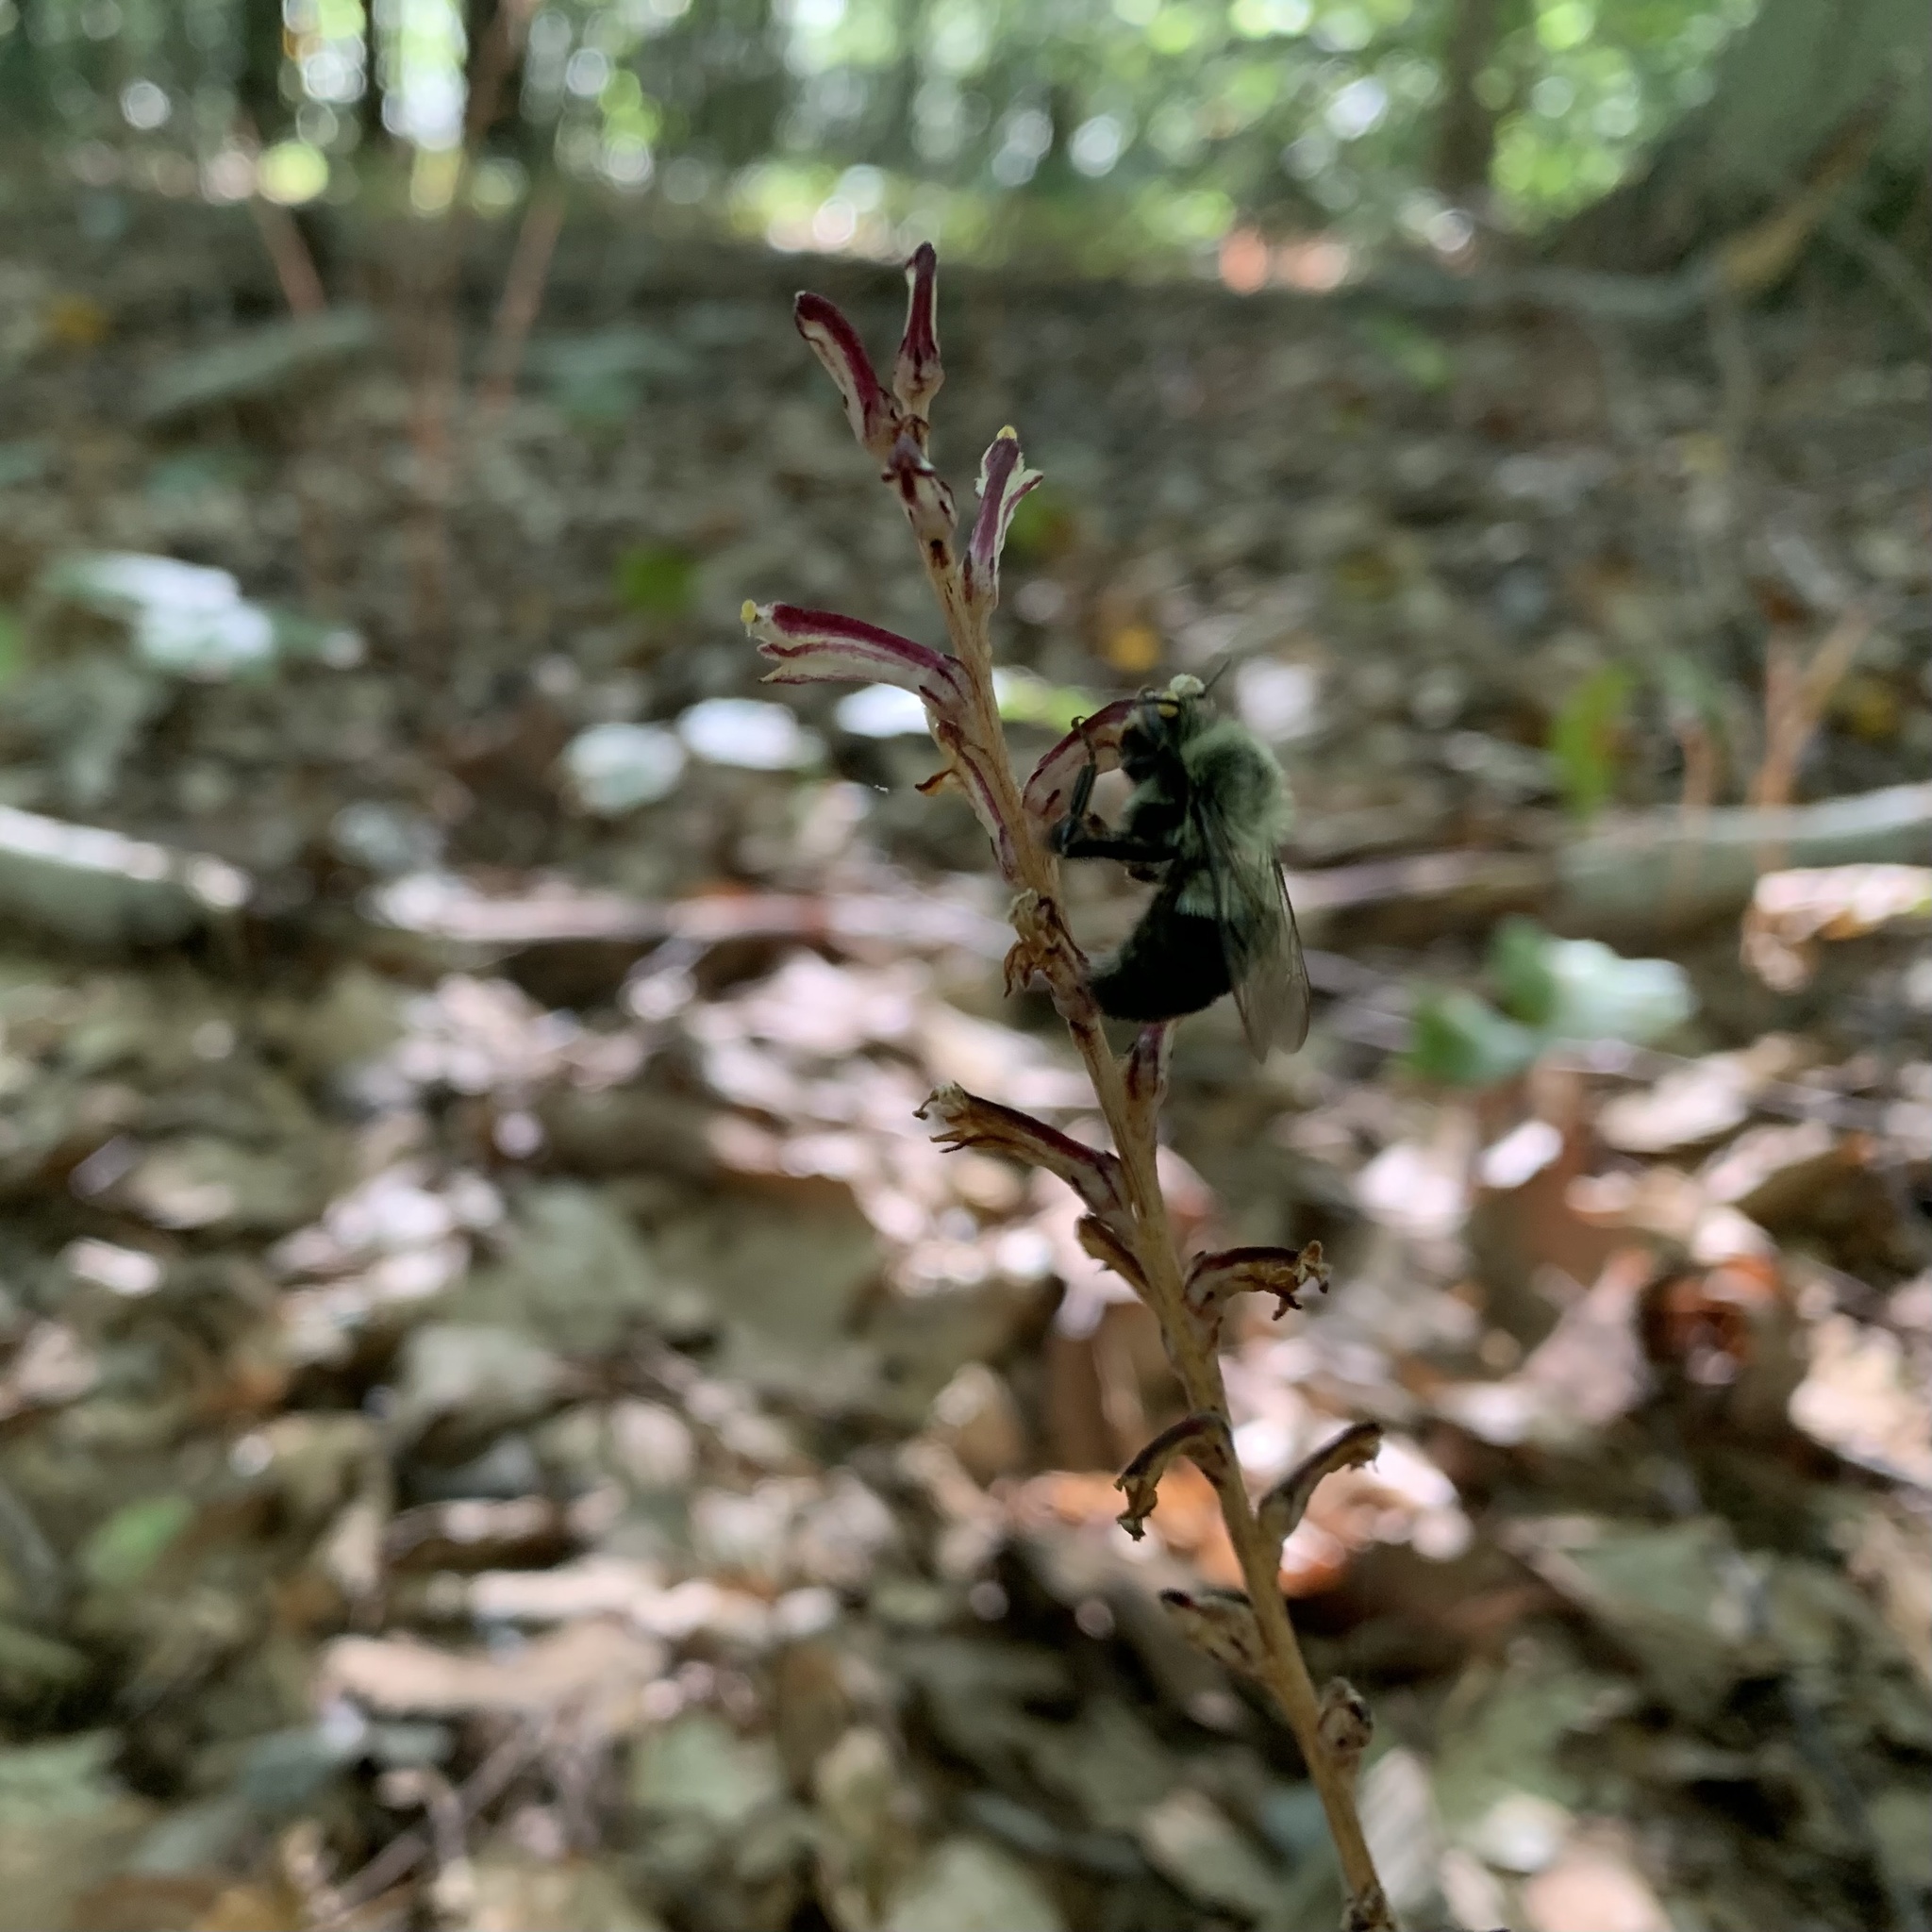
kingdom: Animalia
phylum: Arthropoda
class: Insecta
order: Hymenoptera
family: Apidae
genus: Bombus
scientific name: Bombus impatiens
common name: Common eastern bumble bee
